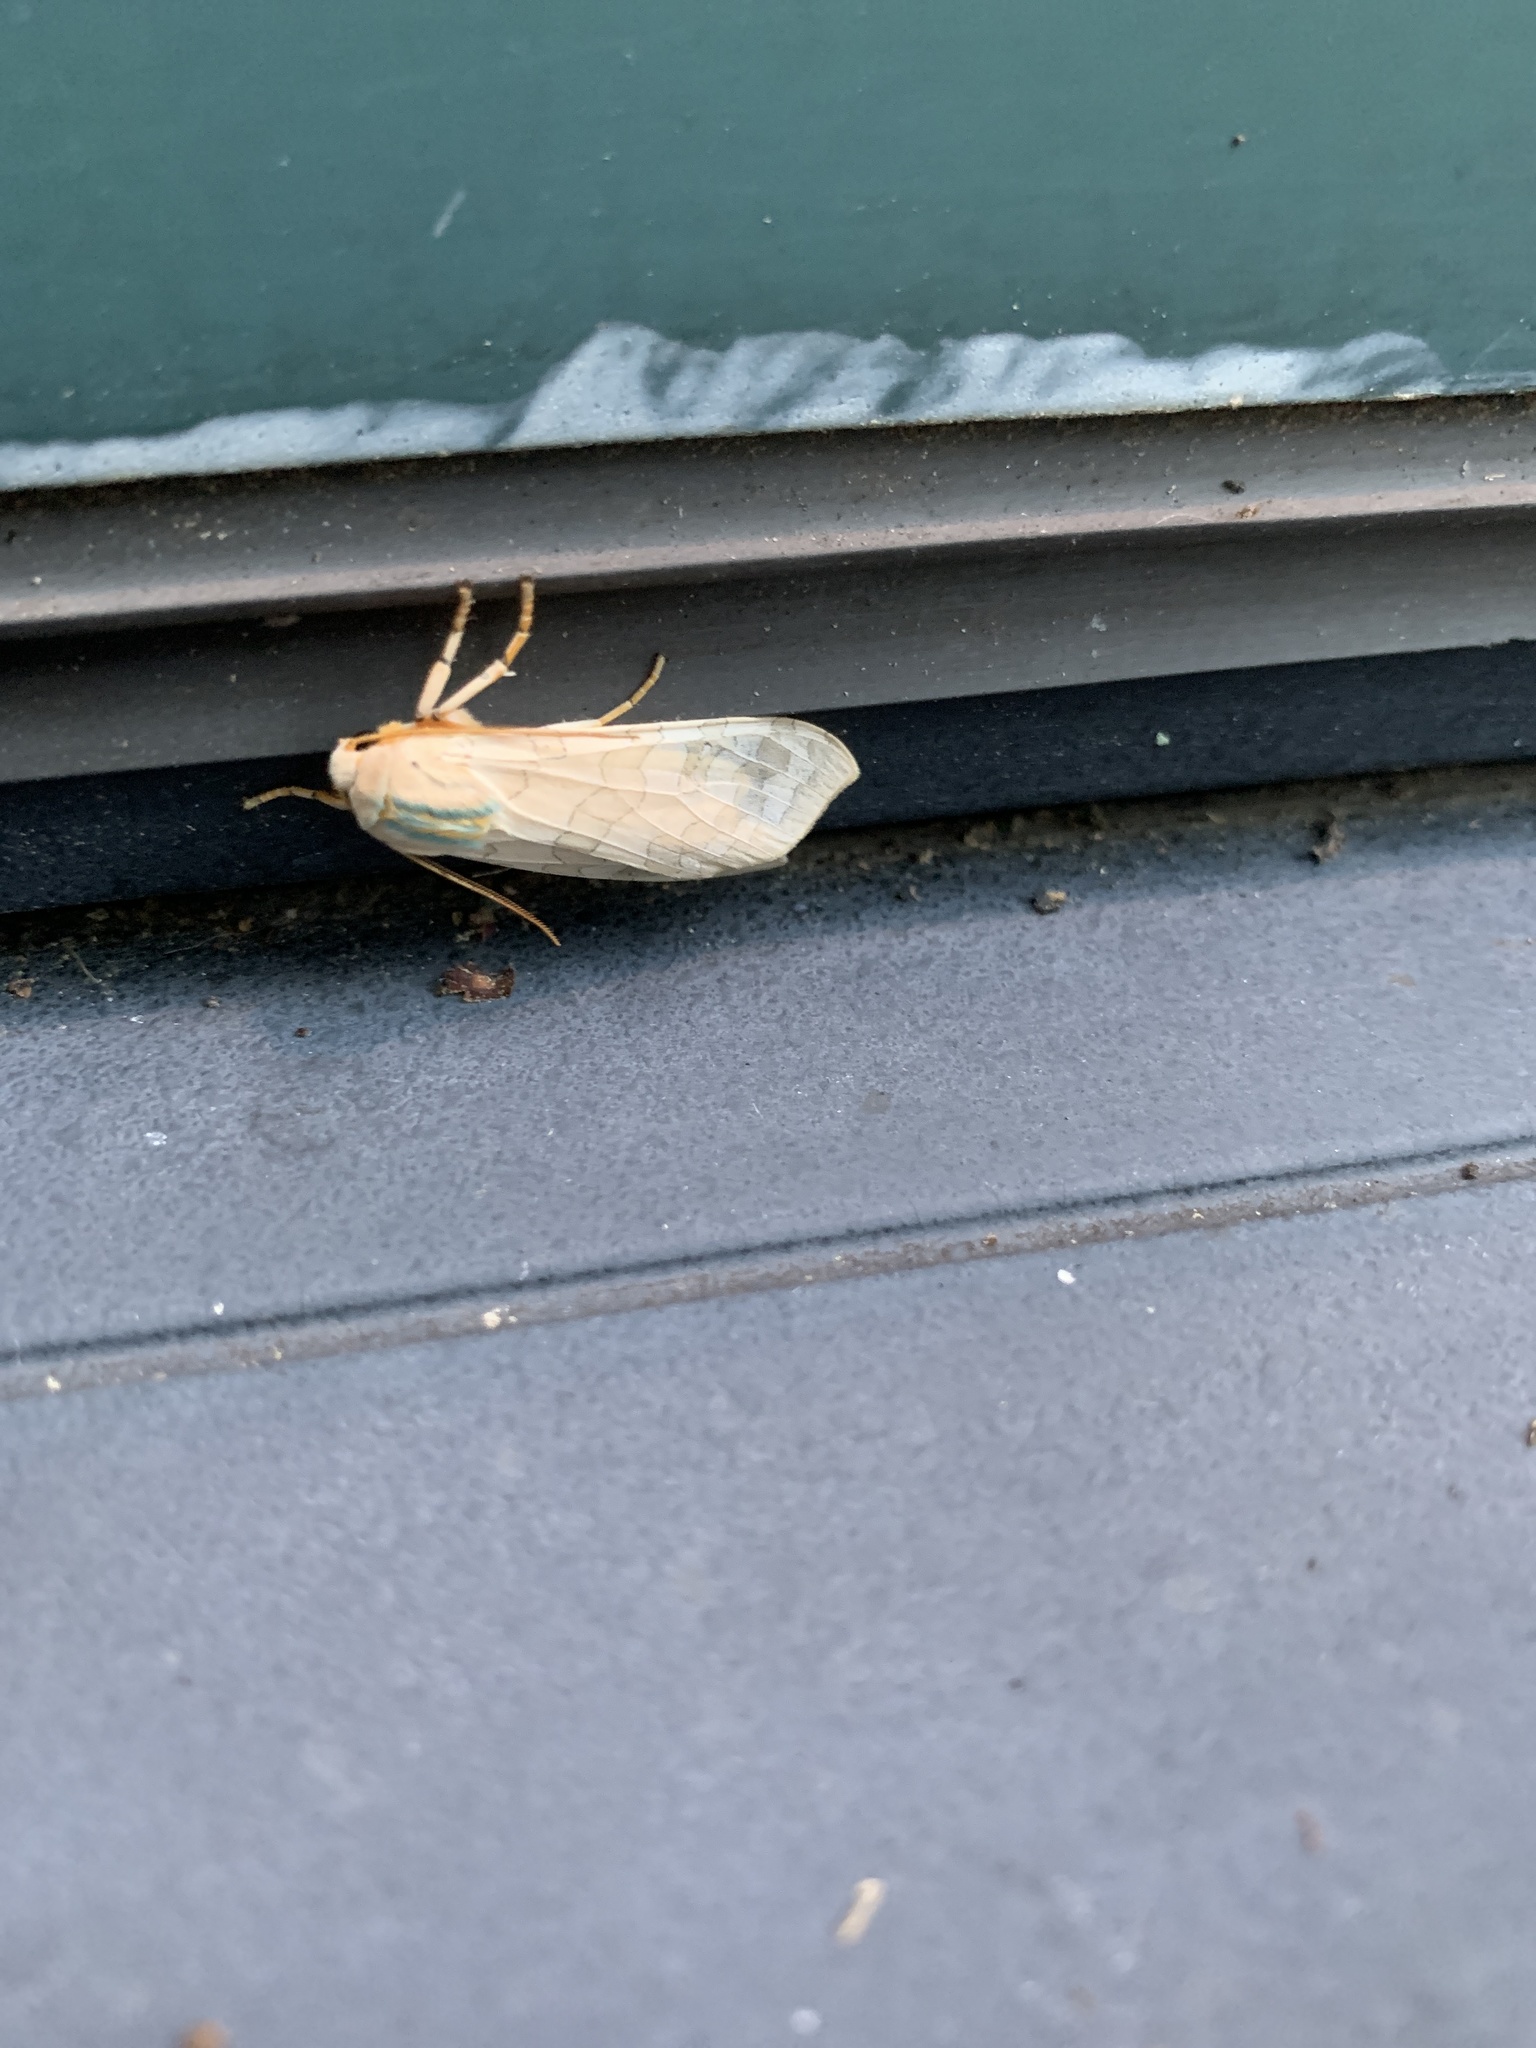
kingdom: Animalia
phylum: Arthropoda
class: Insecta
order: Lepidoptera
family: Erebidae
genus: Halysidota
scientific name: Halysidota
